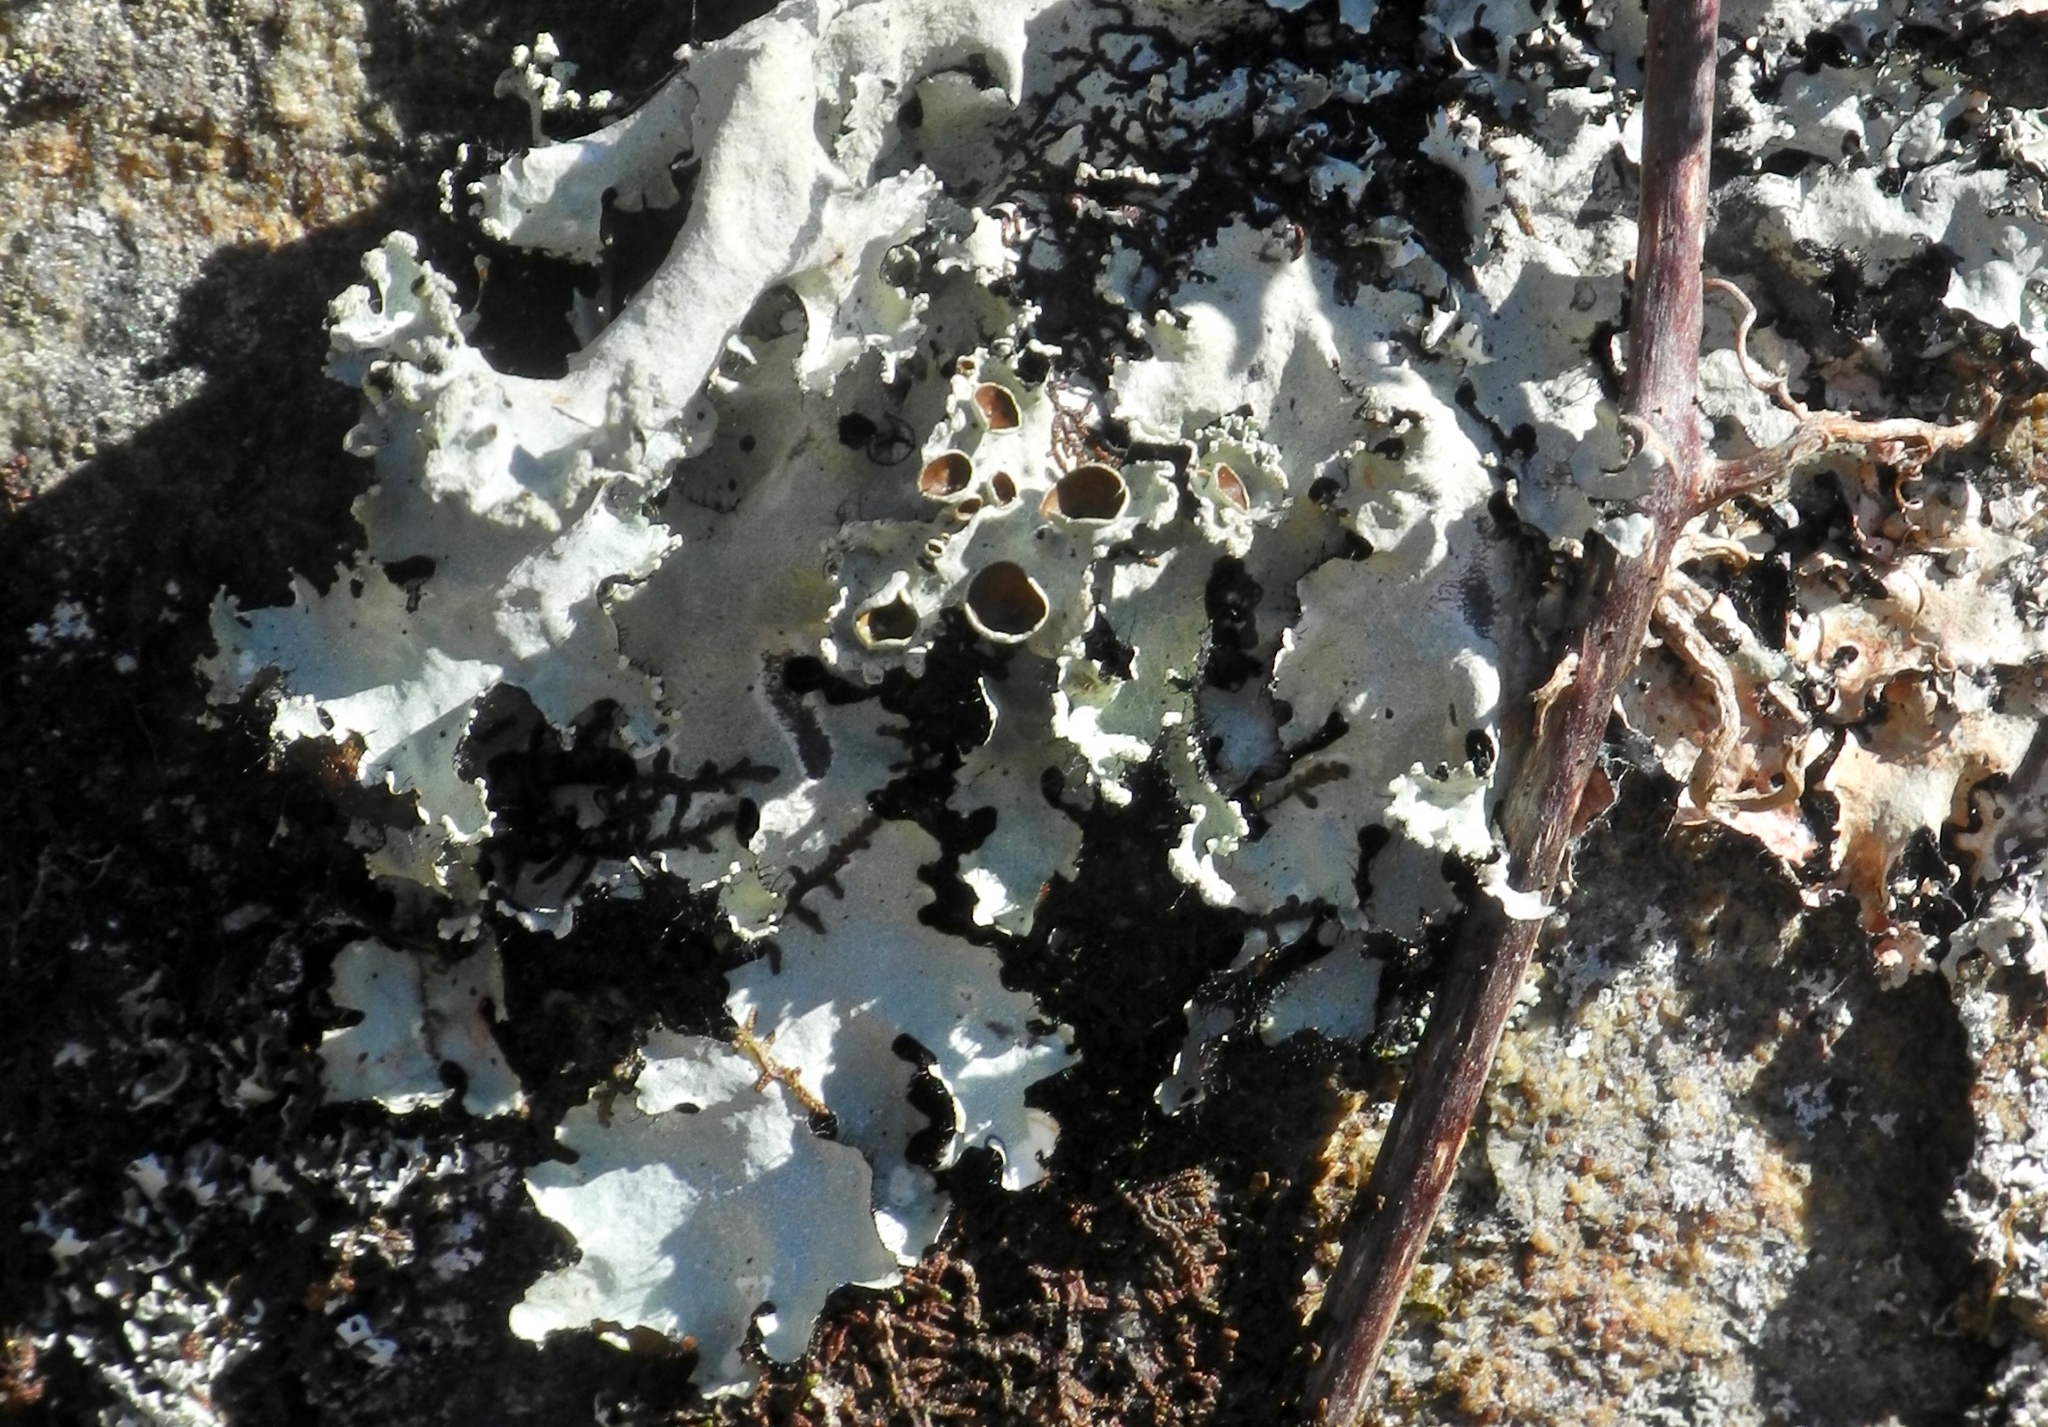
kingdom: Fungi
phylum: Ascomycota
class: Lecanoromycetes
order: Lecanorales
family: Parmeliaceae
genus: Parmotrema
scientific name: Parmotrema reticulatum
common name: Black sheet lichen
